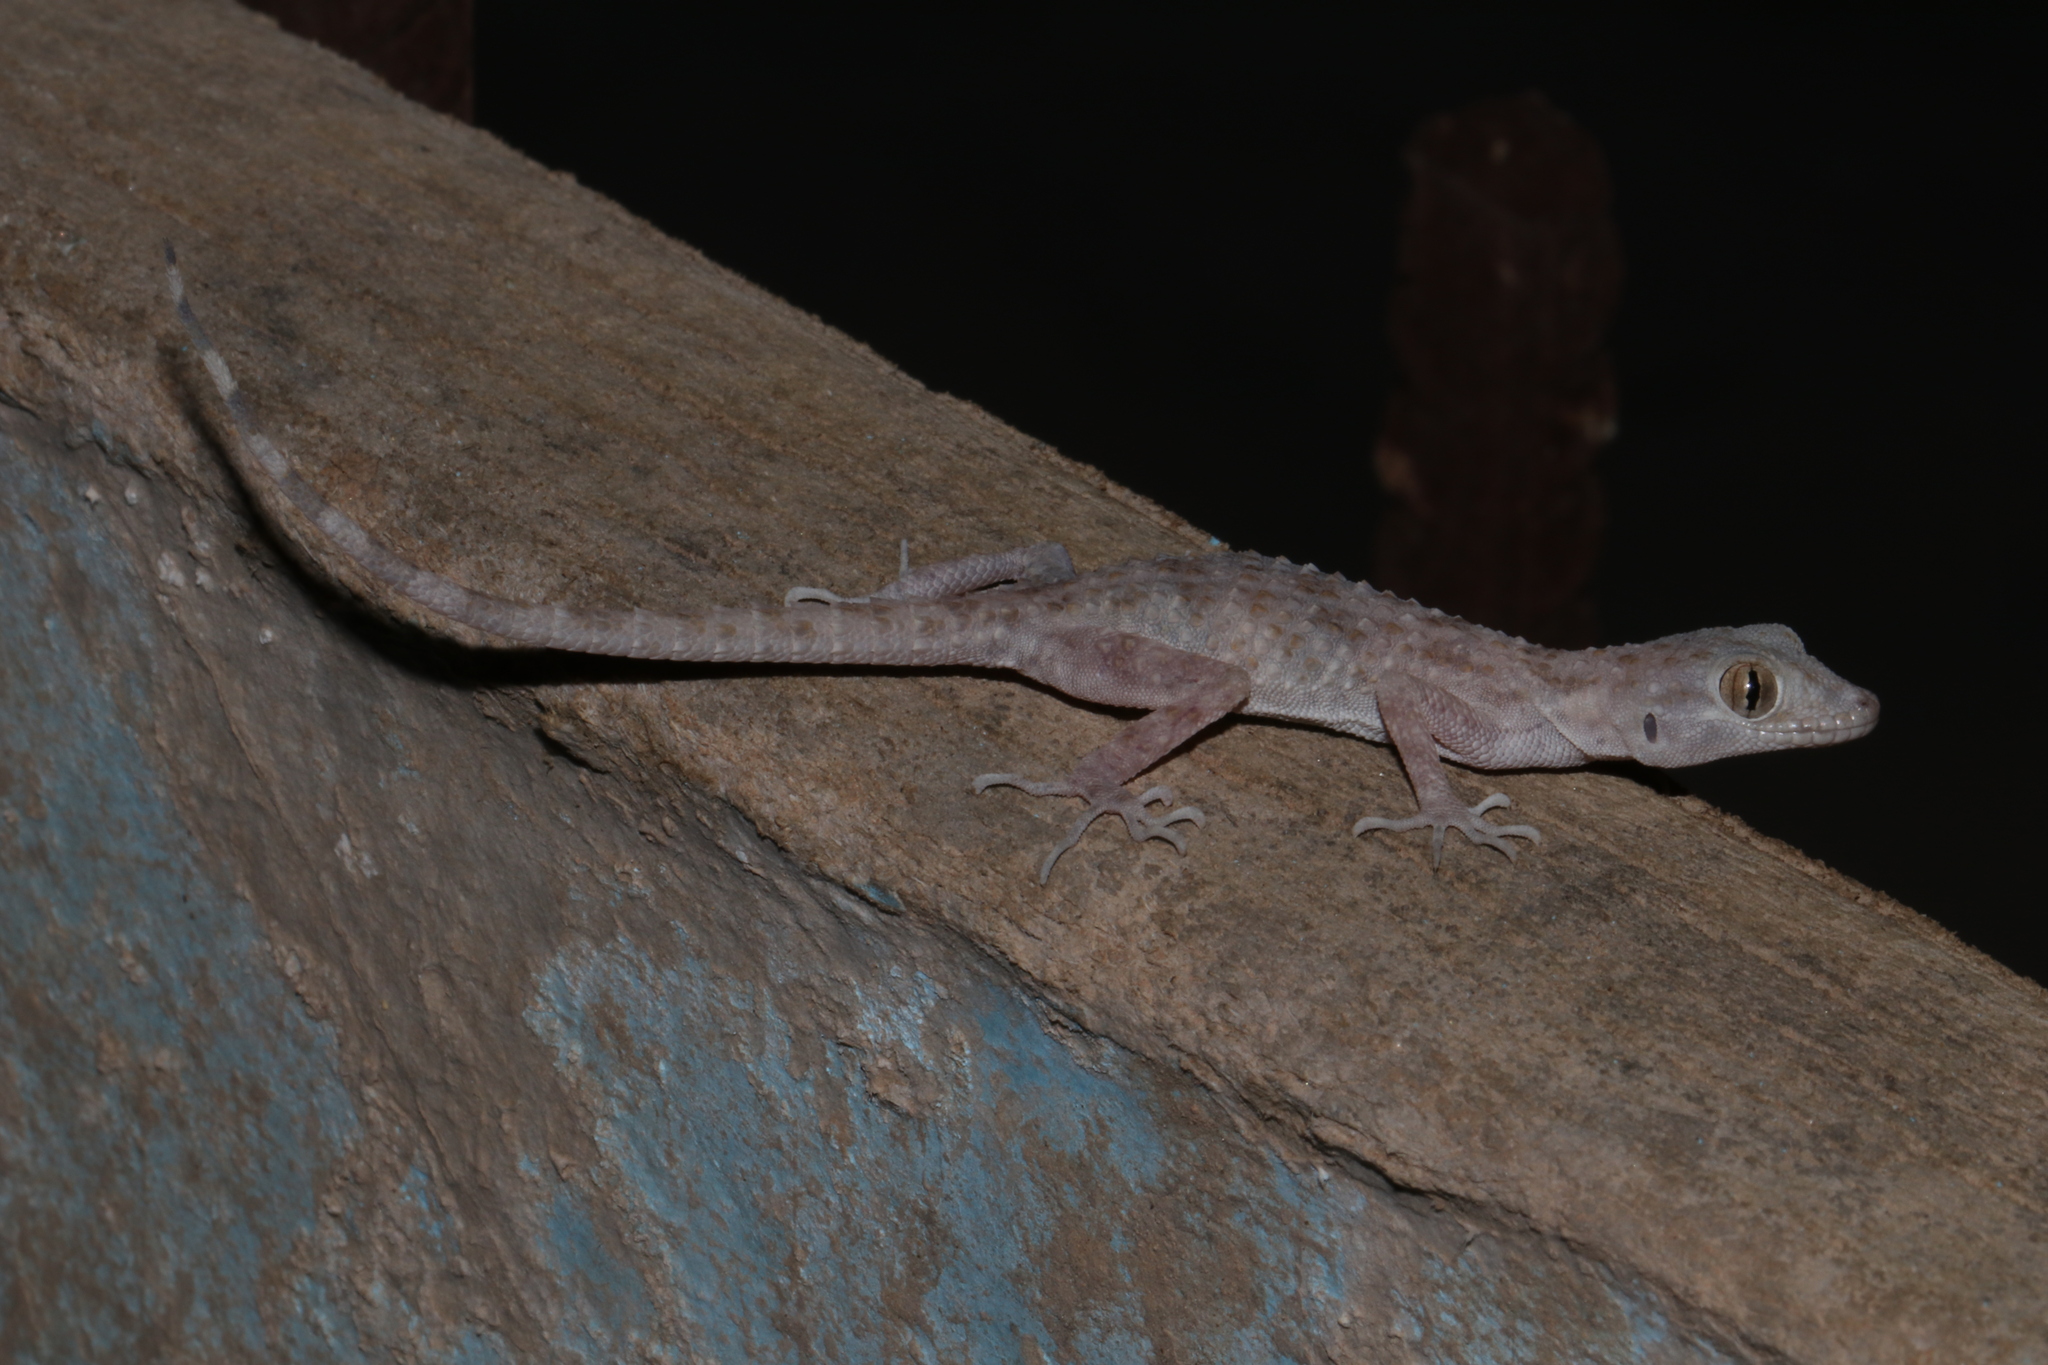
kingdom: Animalia
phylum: Chordata
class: Squamata
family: Gekkonidae
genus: Cyrtopodion
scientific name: Cyrtopodion scabrum
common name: Rough-tailed gecko
